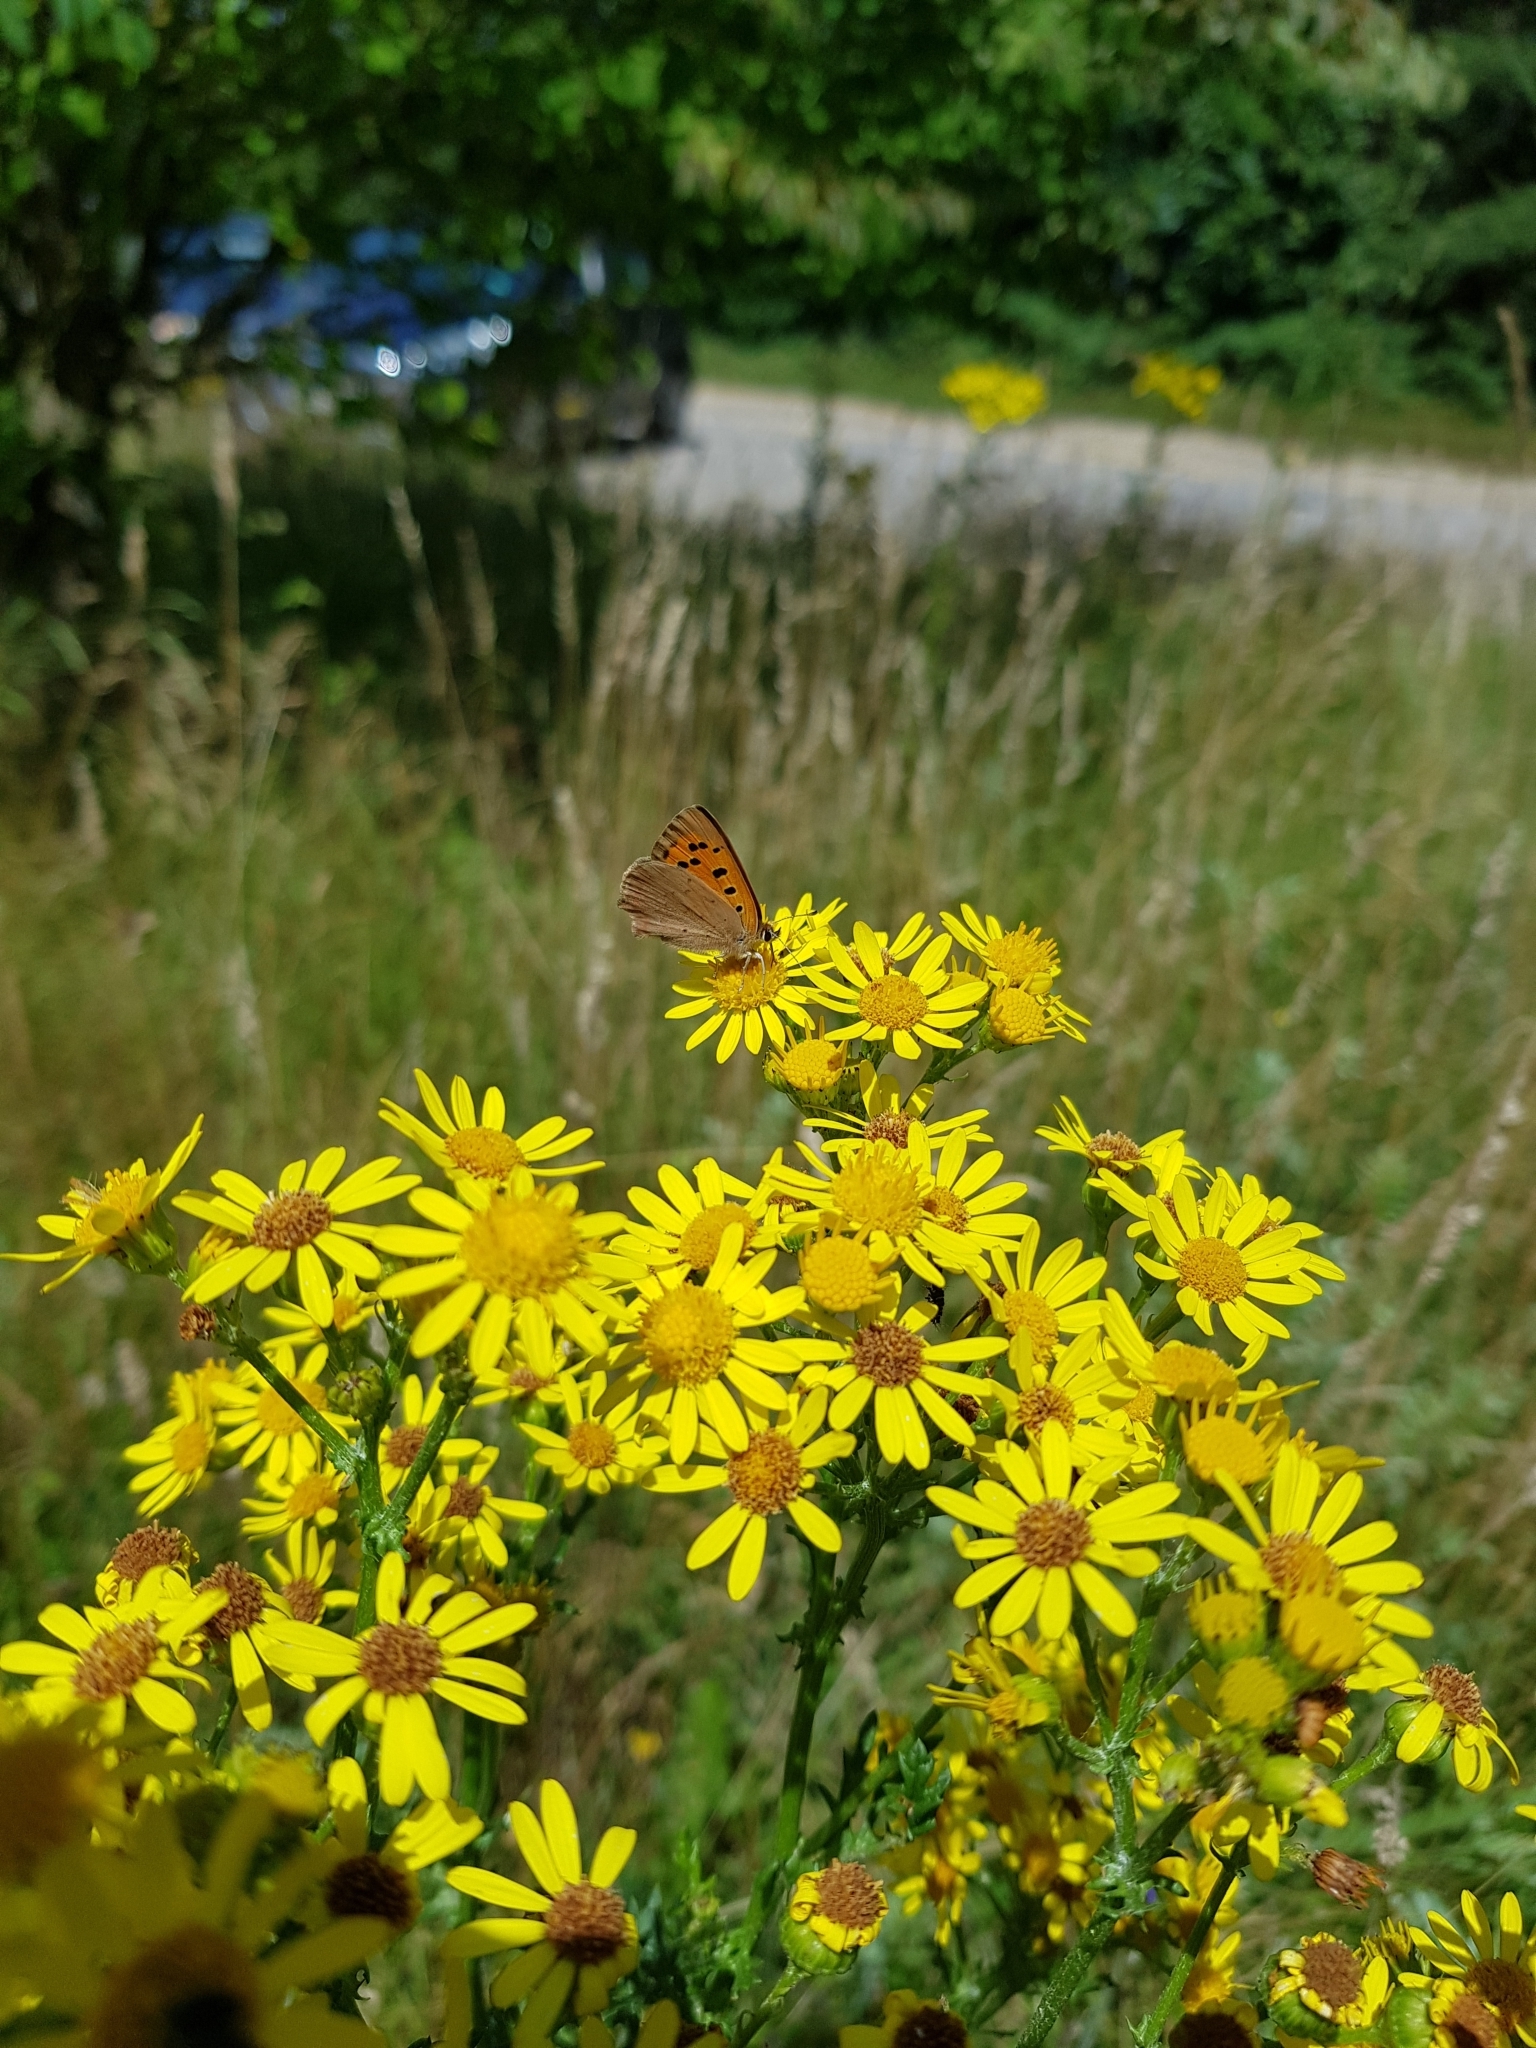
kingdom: Animalia
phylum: Arthropoda
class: Insecta
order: Lepidoptera
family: Lycaenidae
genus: Lycaena
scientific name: Lycaena phlaeas
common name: Small copper
